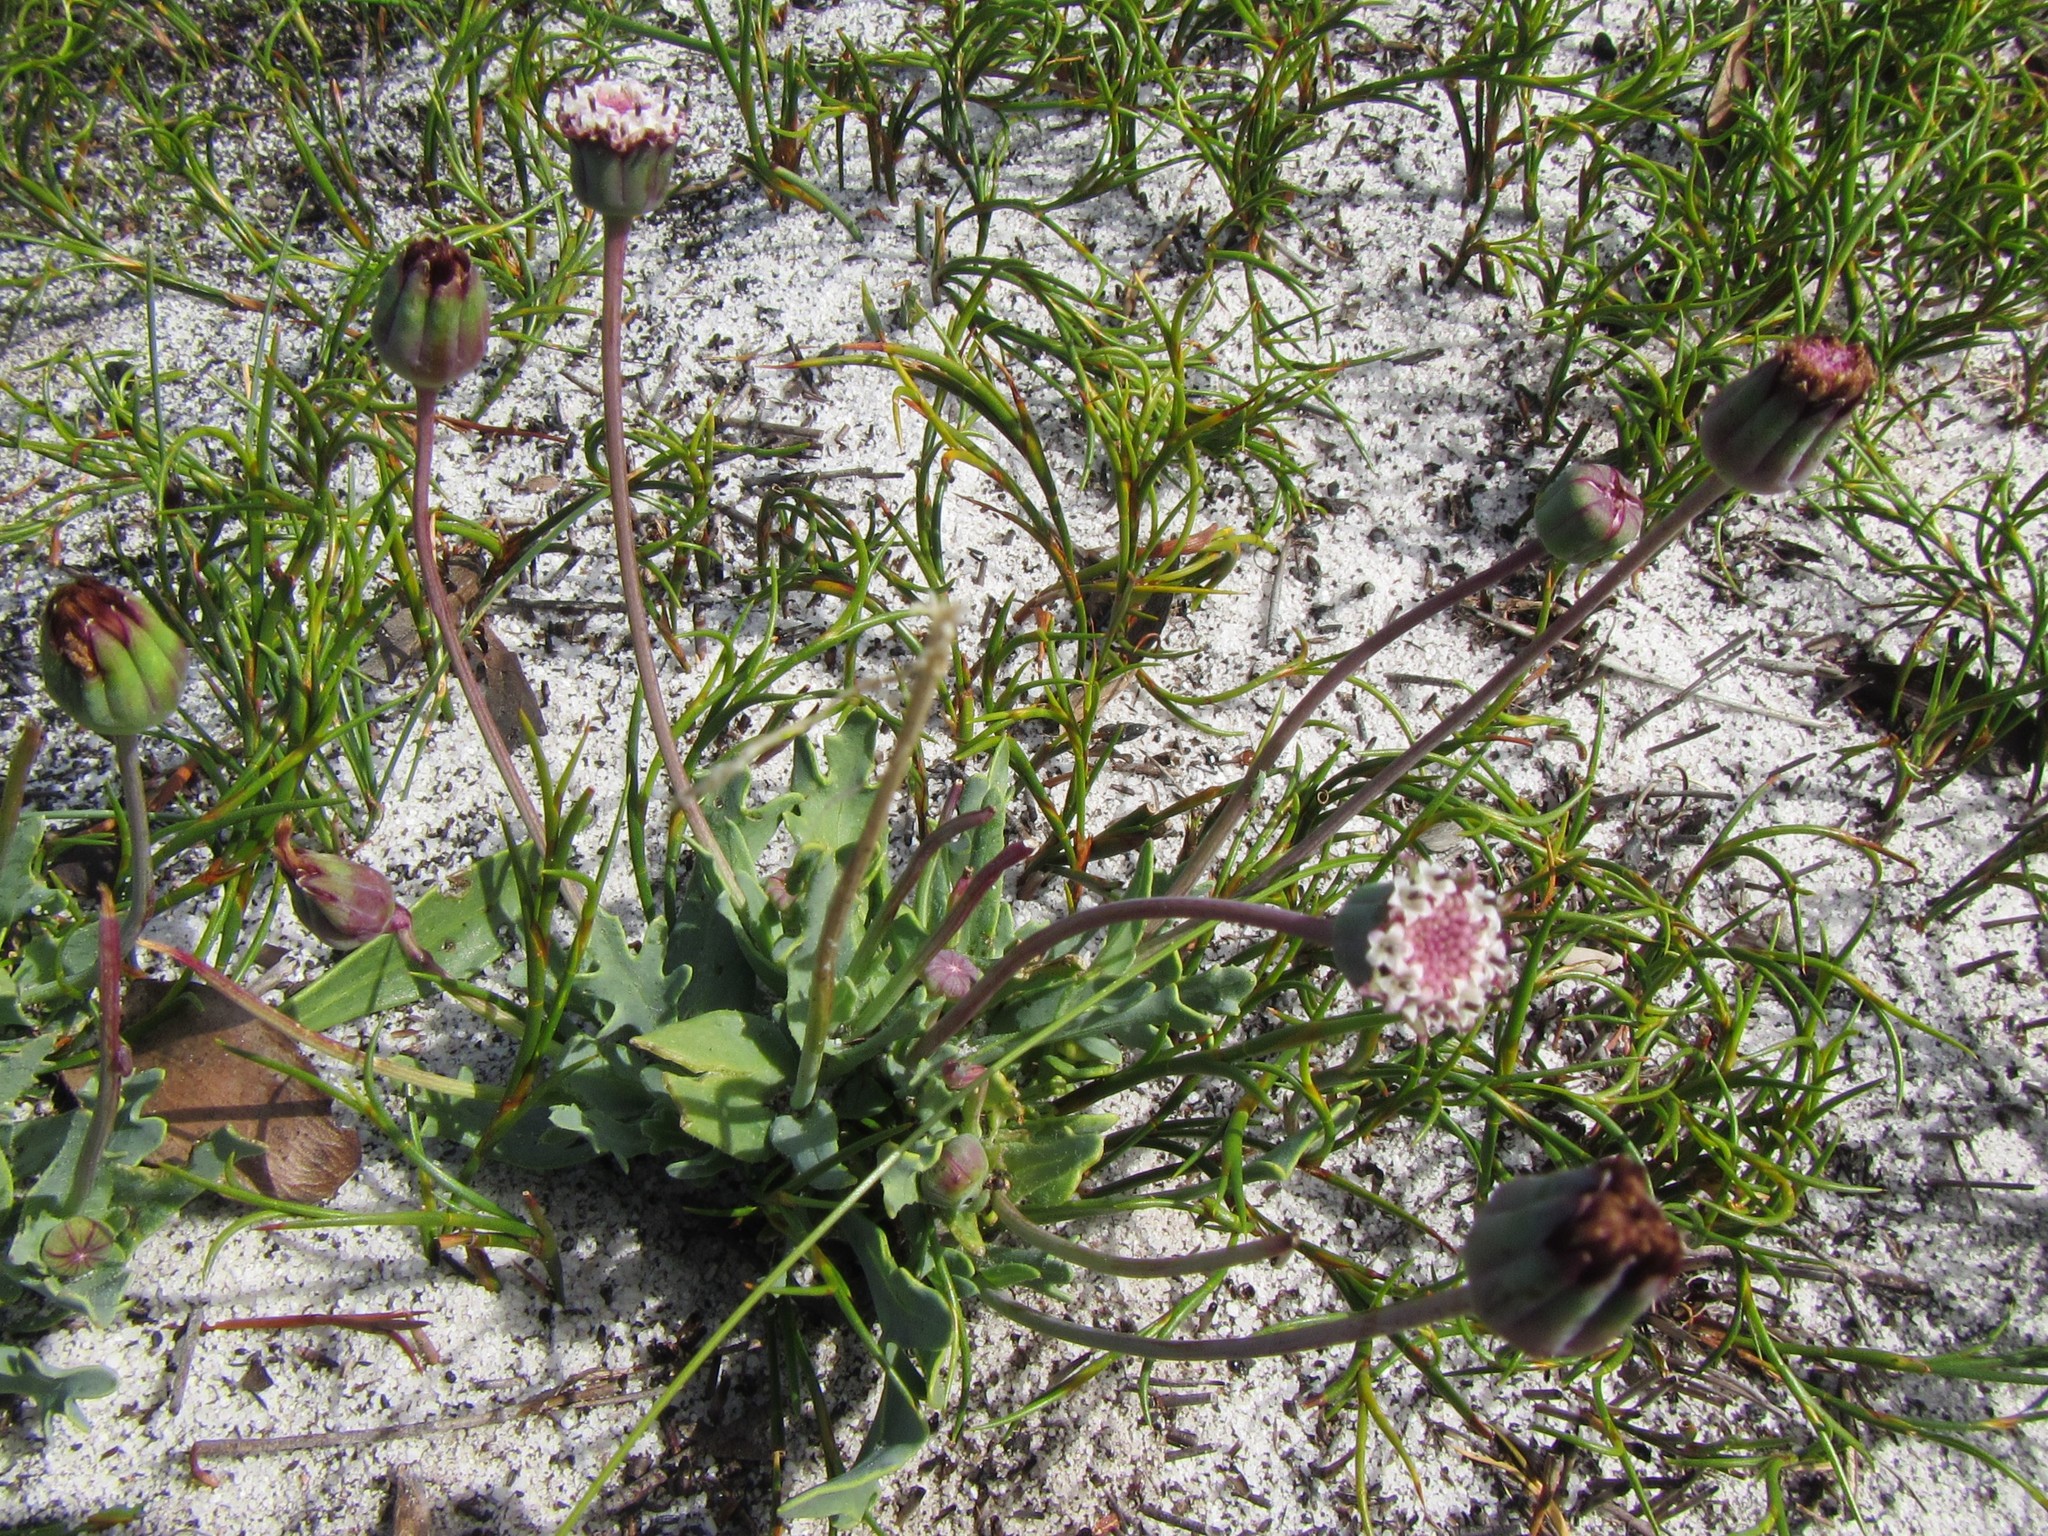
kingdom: Plantae
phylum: Tracheophyta
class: Magnoliopsida
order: Asterales
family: Asteraceae
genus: Othonna
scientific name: Othonna digitata
